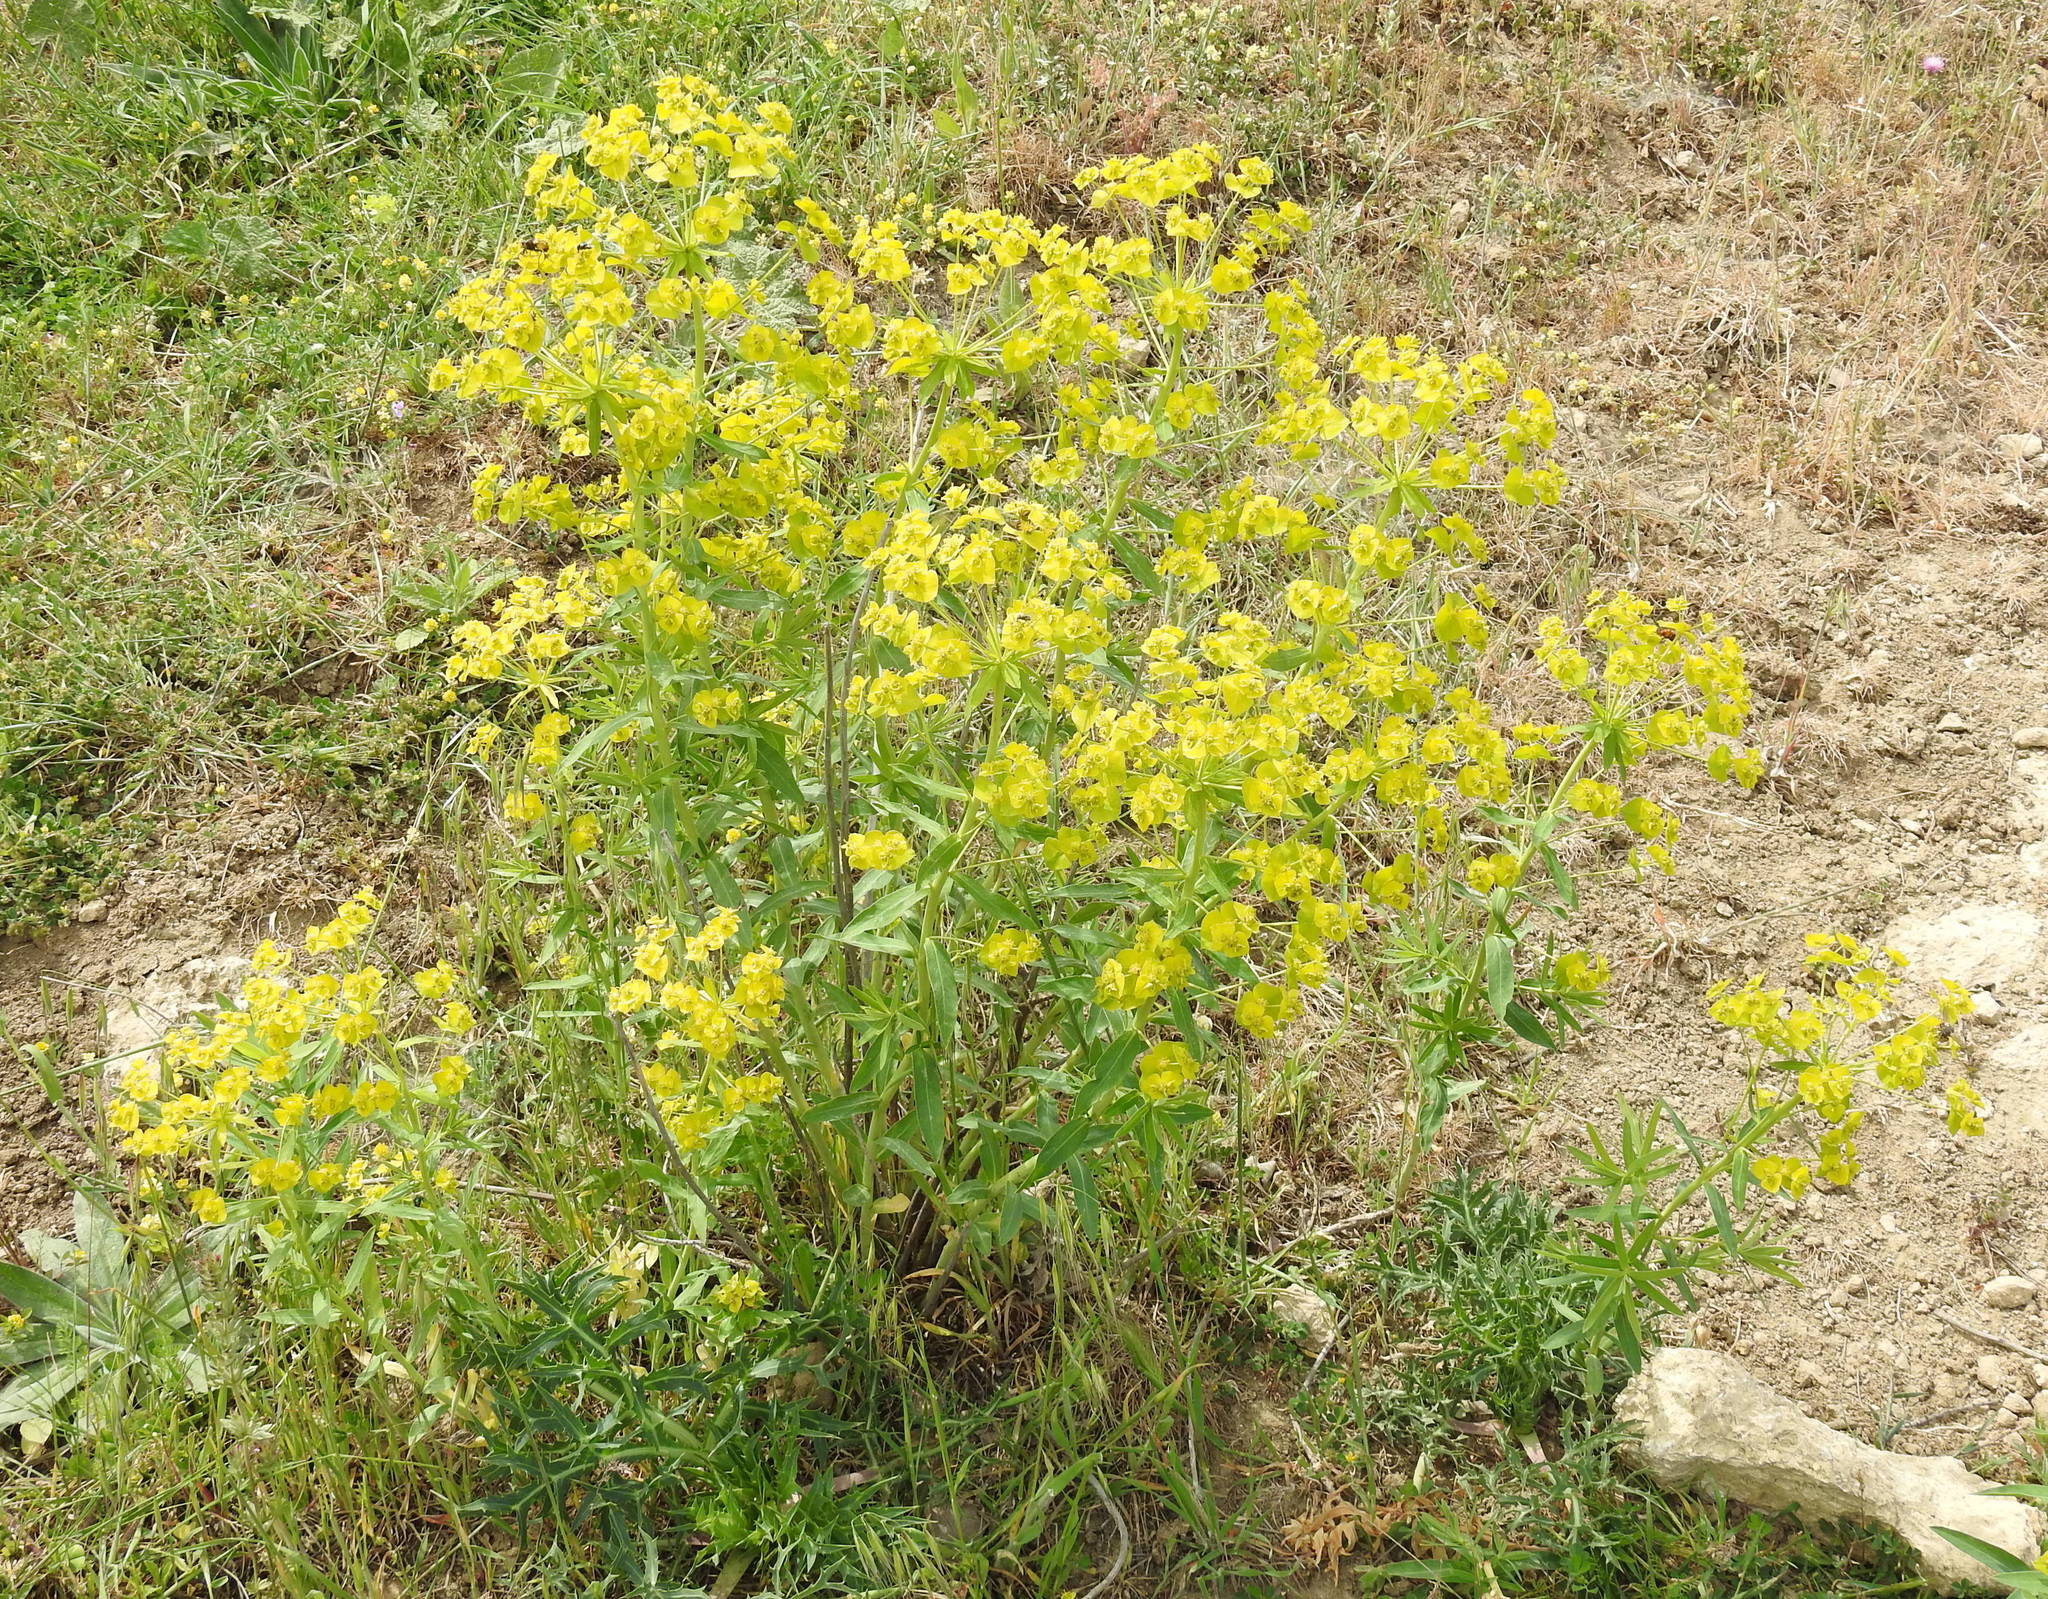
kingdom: Plantae
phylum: Tracheophyta
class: Magnoliopsida
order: Malpighiales
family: Euphorbiaceae
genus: Euphorbia
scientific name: Euphorbia virgata
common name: Leafy spurge
